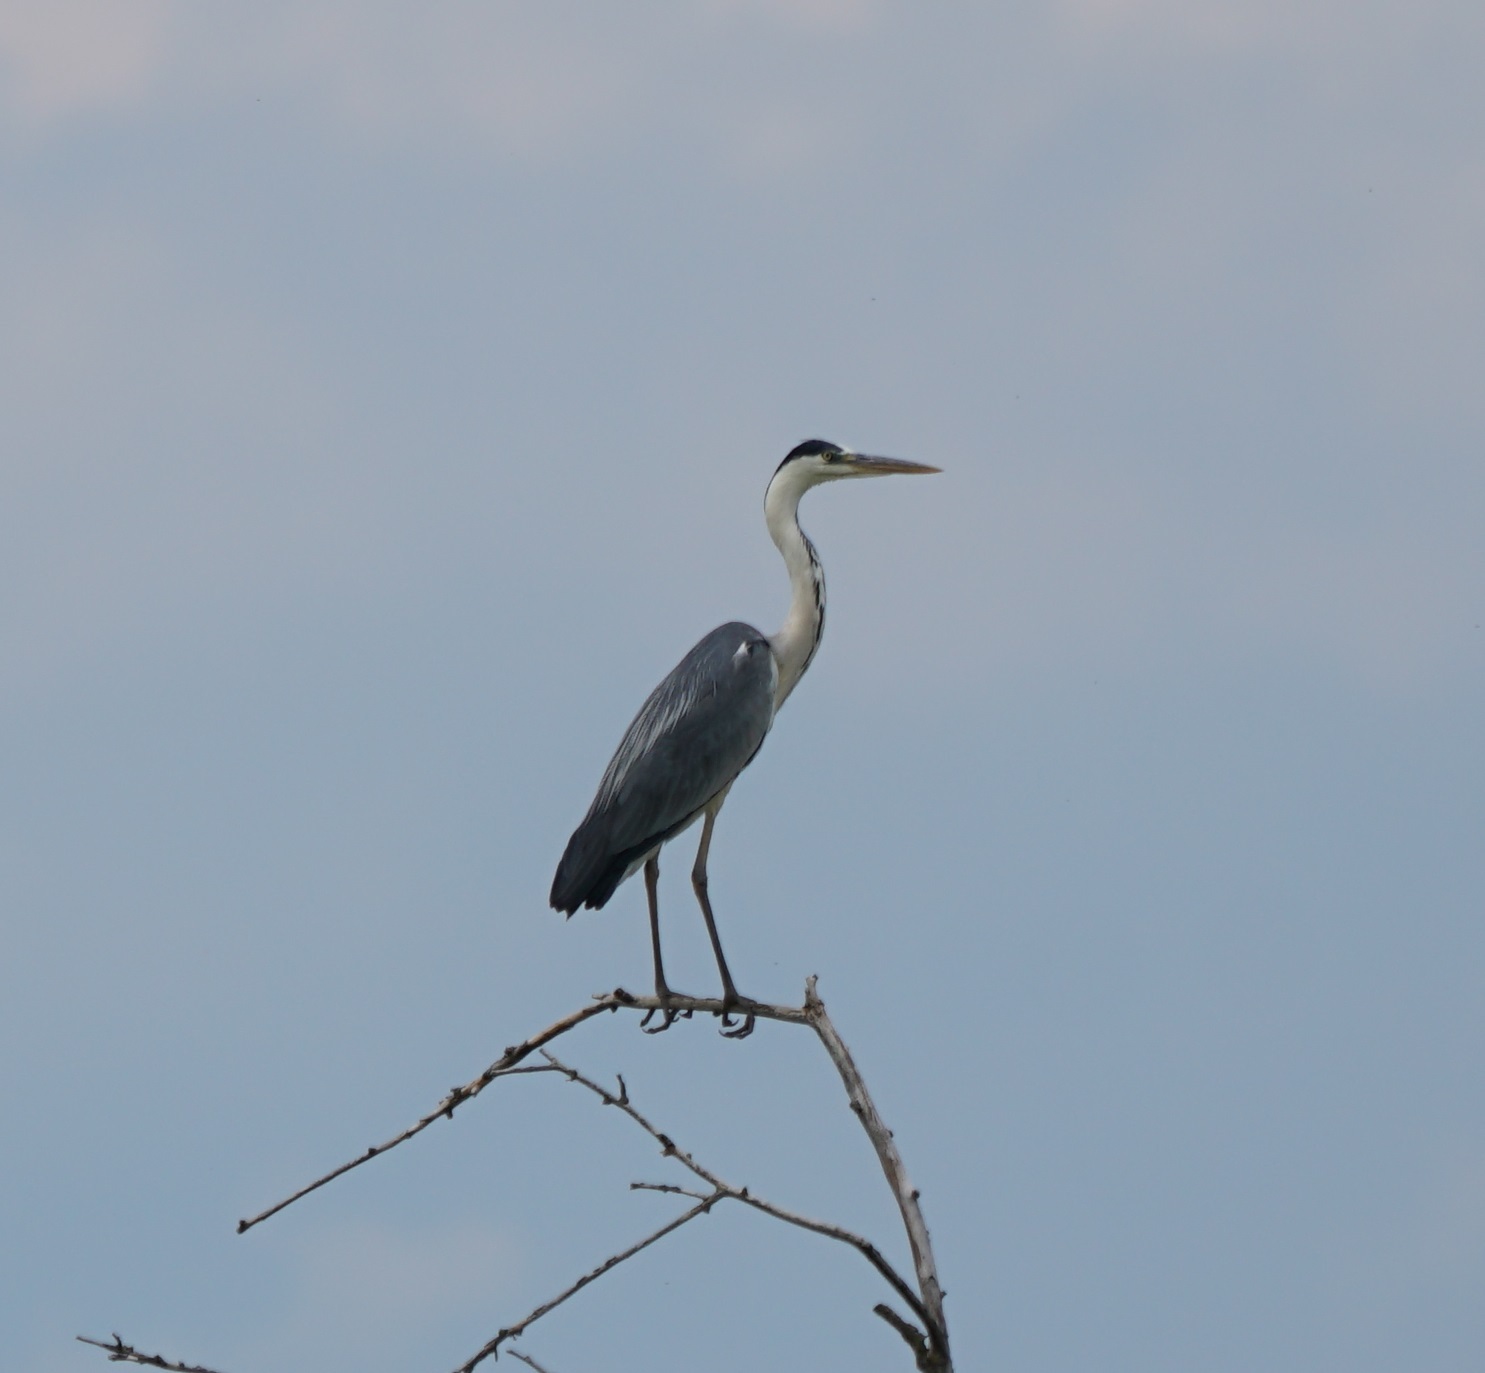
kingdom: Animalia
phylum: Chordata
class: Aves
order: Pelecaniformes
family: Ardeidae
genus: Ardea
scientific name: Ardea cinerea
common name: Grey heron
